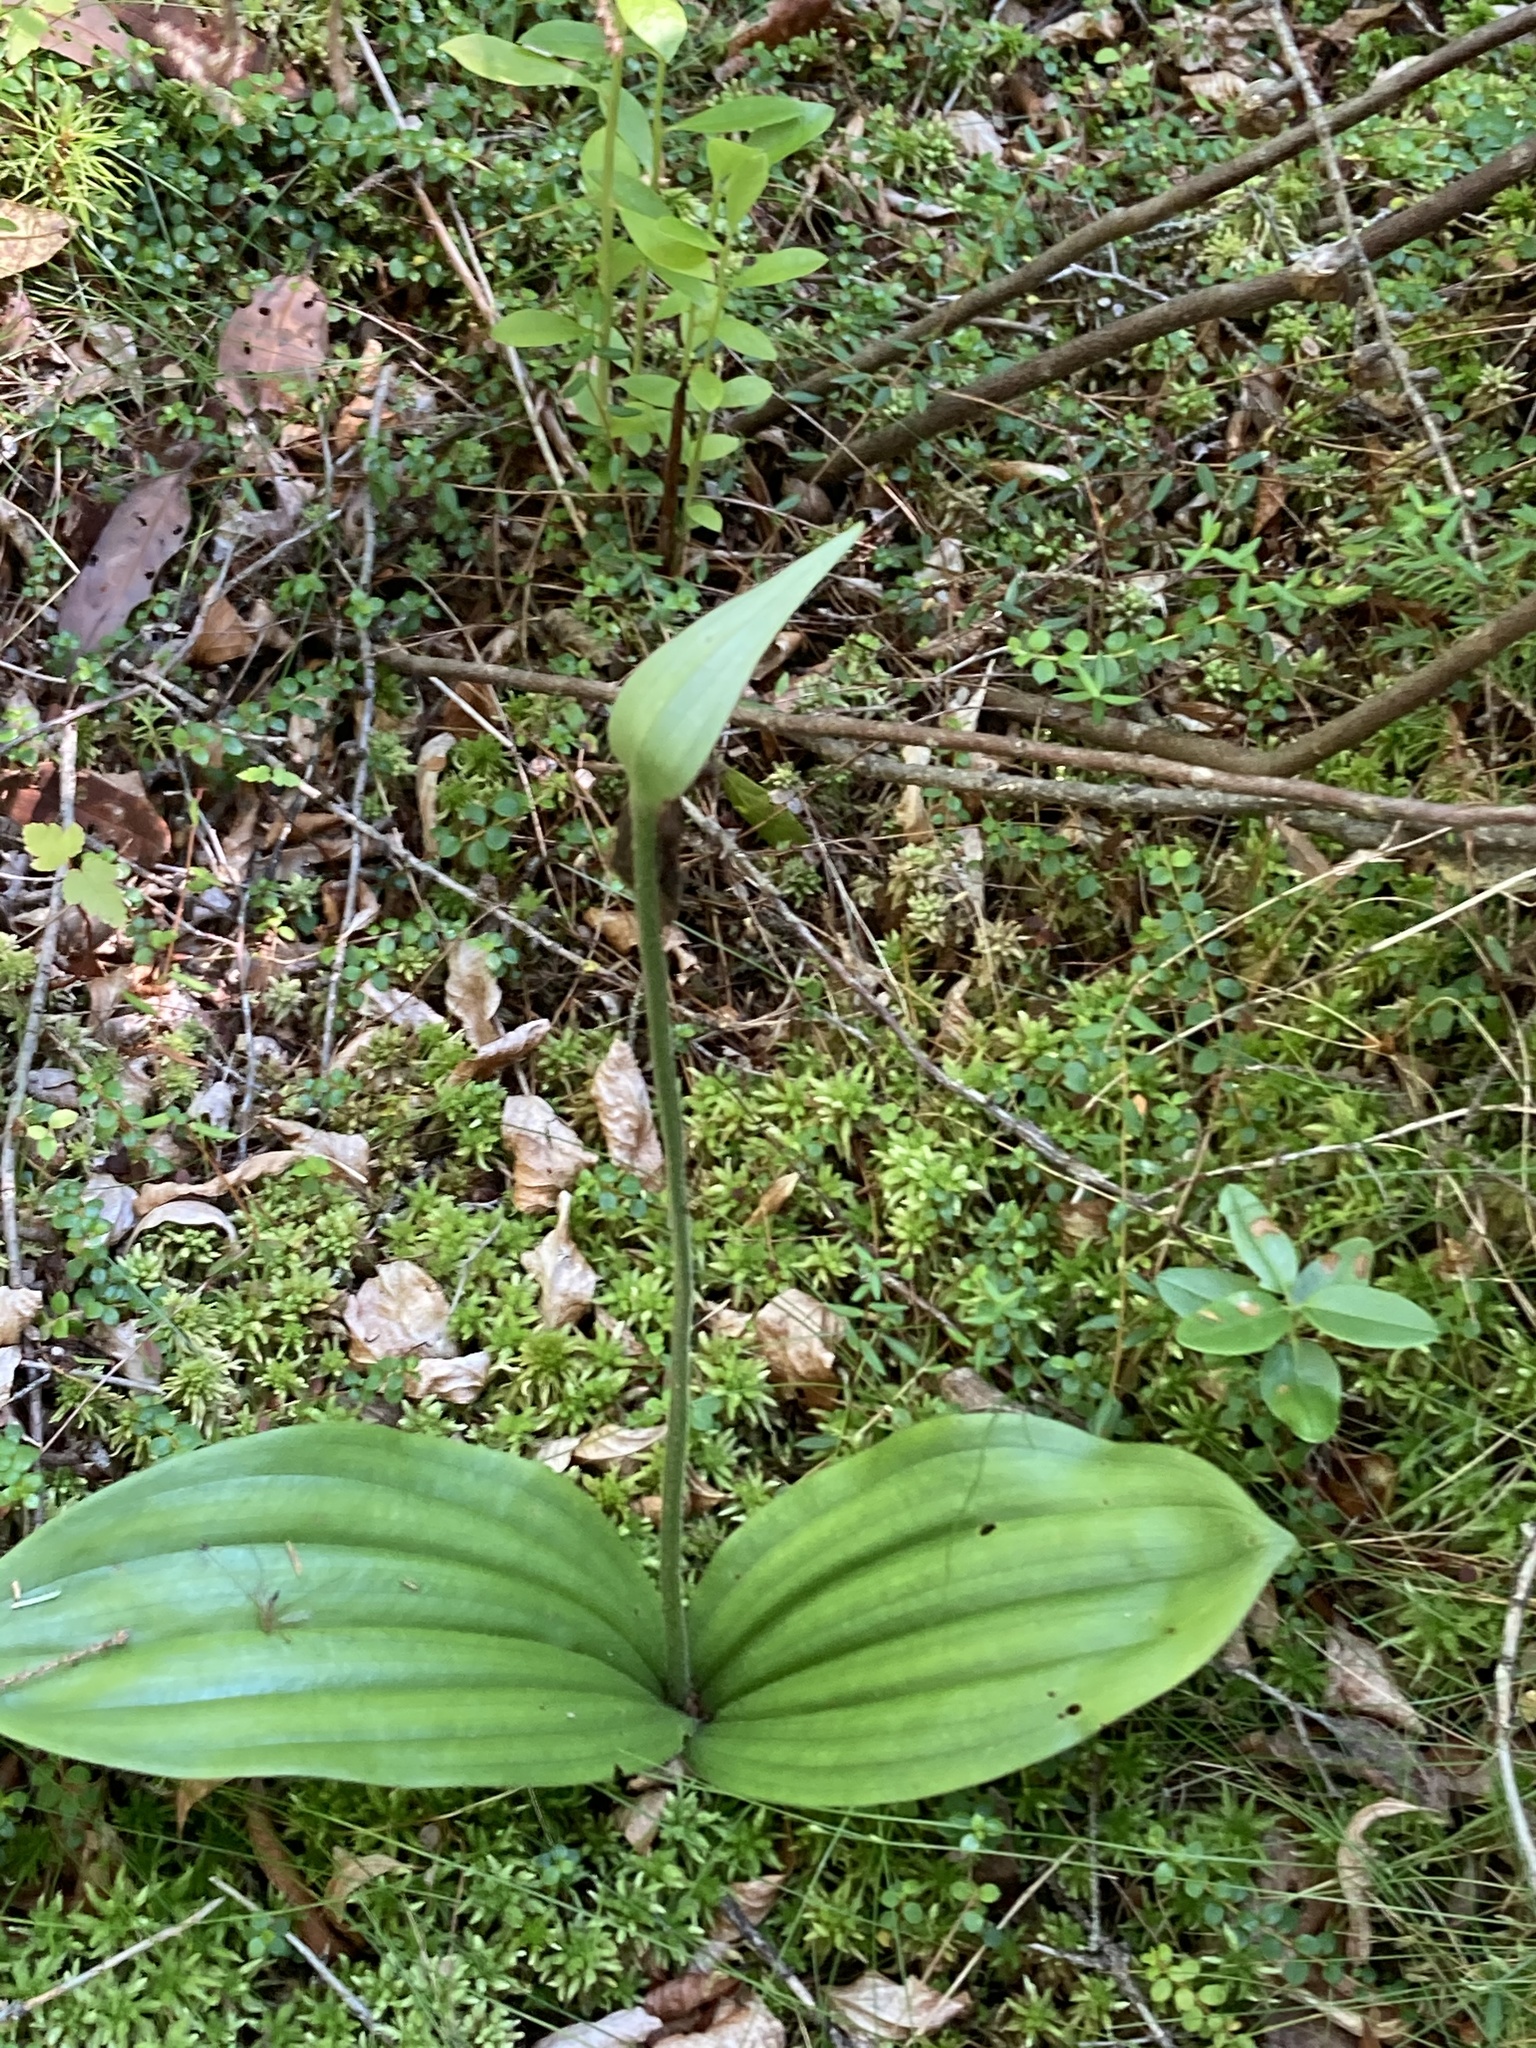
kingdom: Plantae
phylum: Tracheophyta
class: Liliopsida
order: Asparagales
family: Orchidaceae
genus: Cypripedium
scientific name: Cypripedium acaule
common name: Pink lady's-slipper
